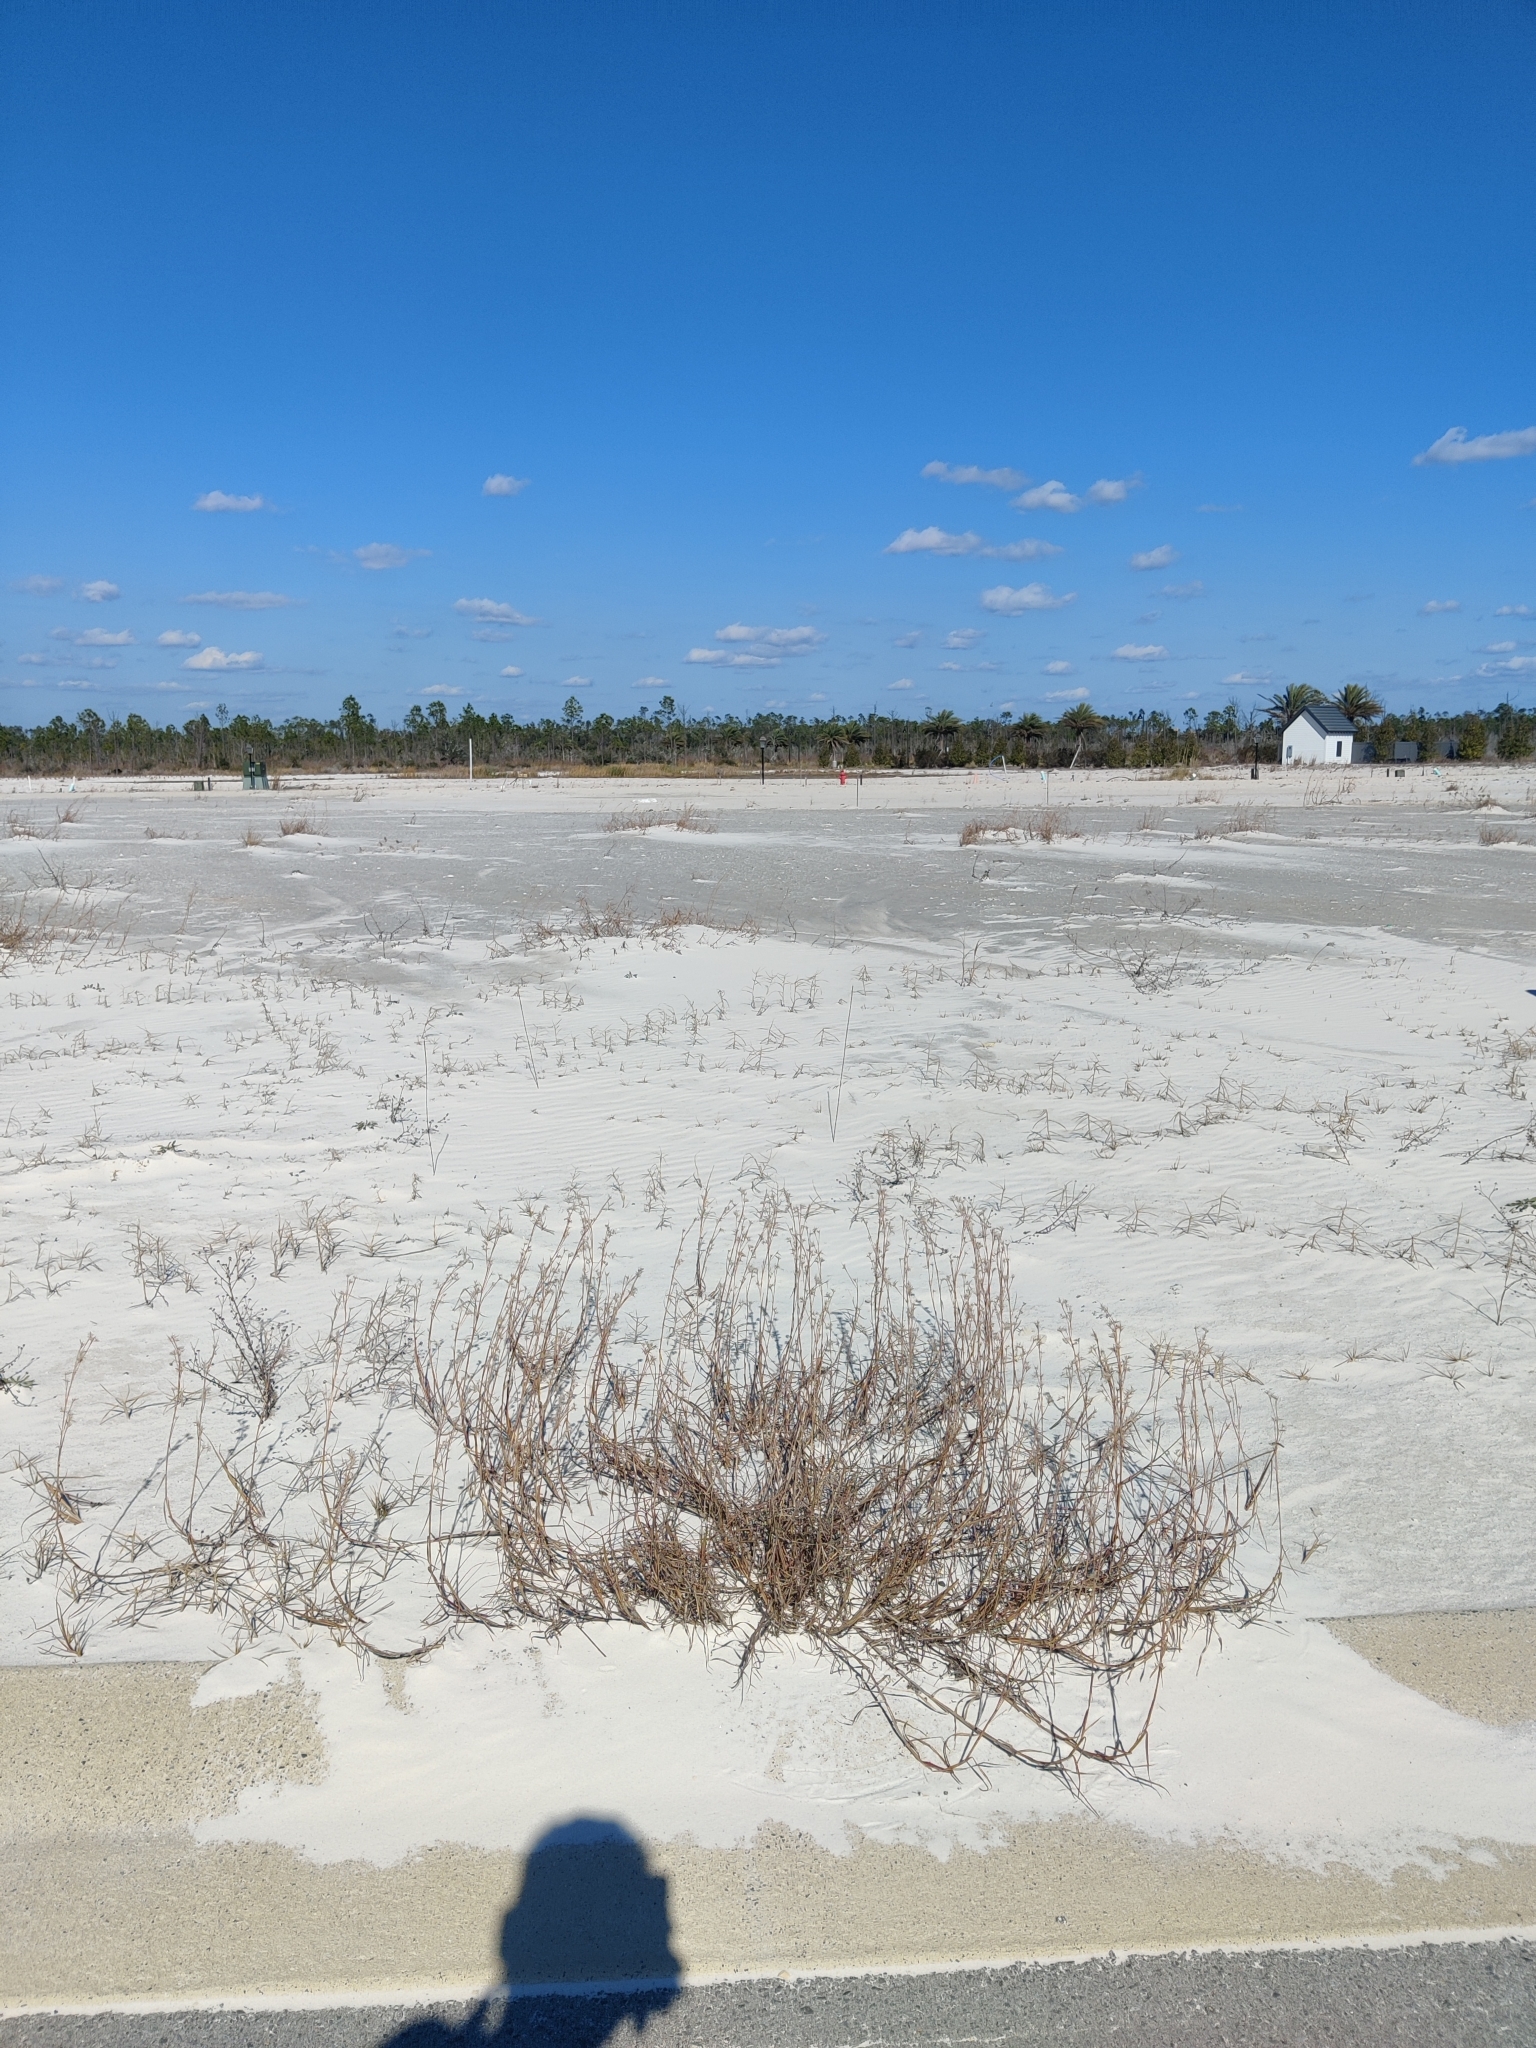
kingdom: Plantae
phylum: Tracheophyta
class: Liliopsida
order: Poales
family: Poaceae
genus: Schizachyrium
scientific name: Schizachyrium maritimum
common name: Gulf bluestem
